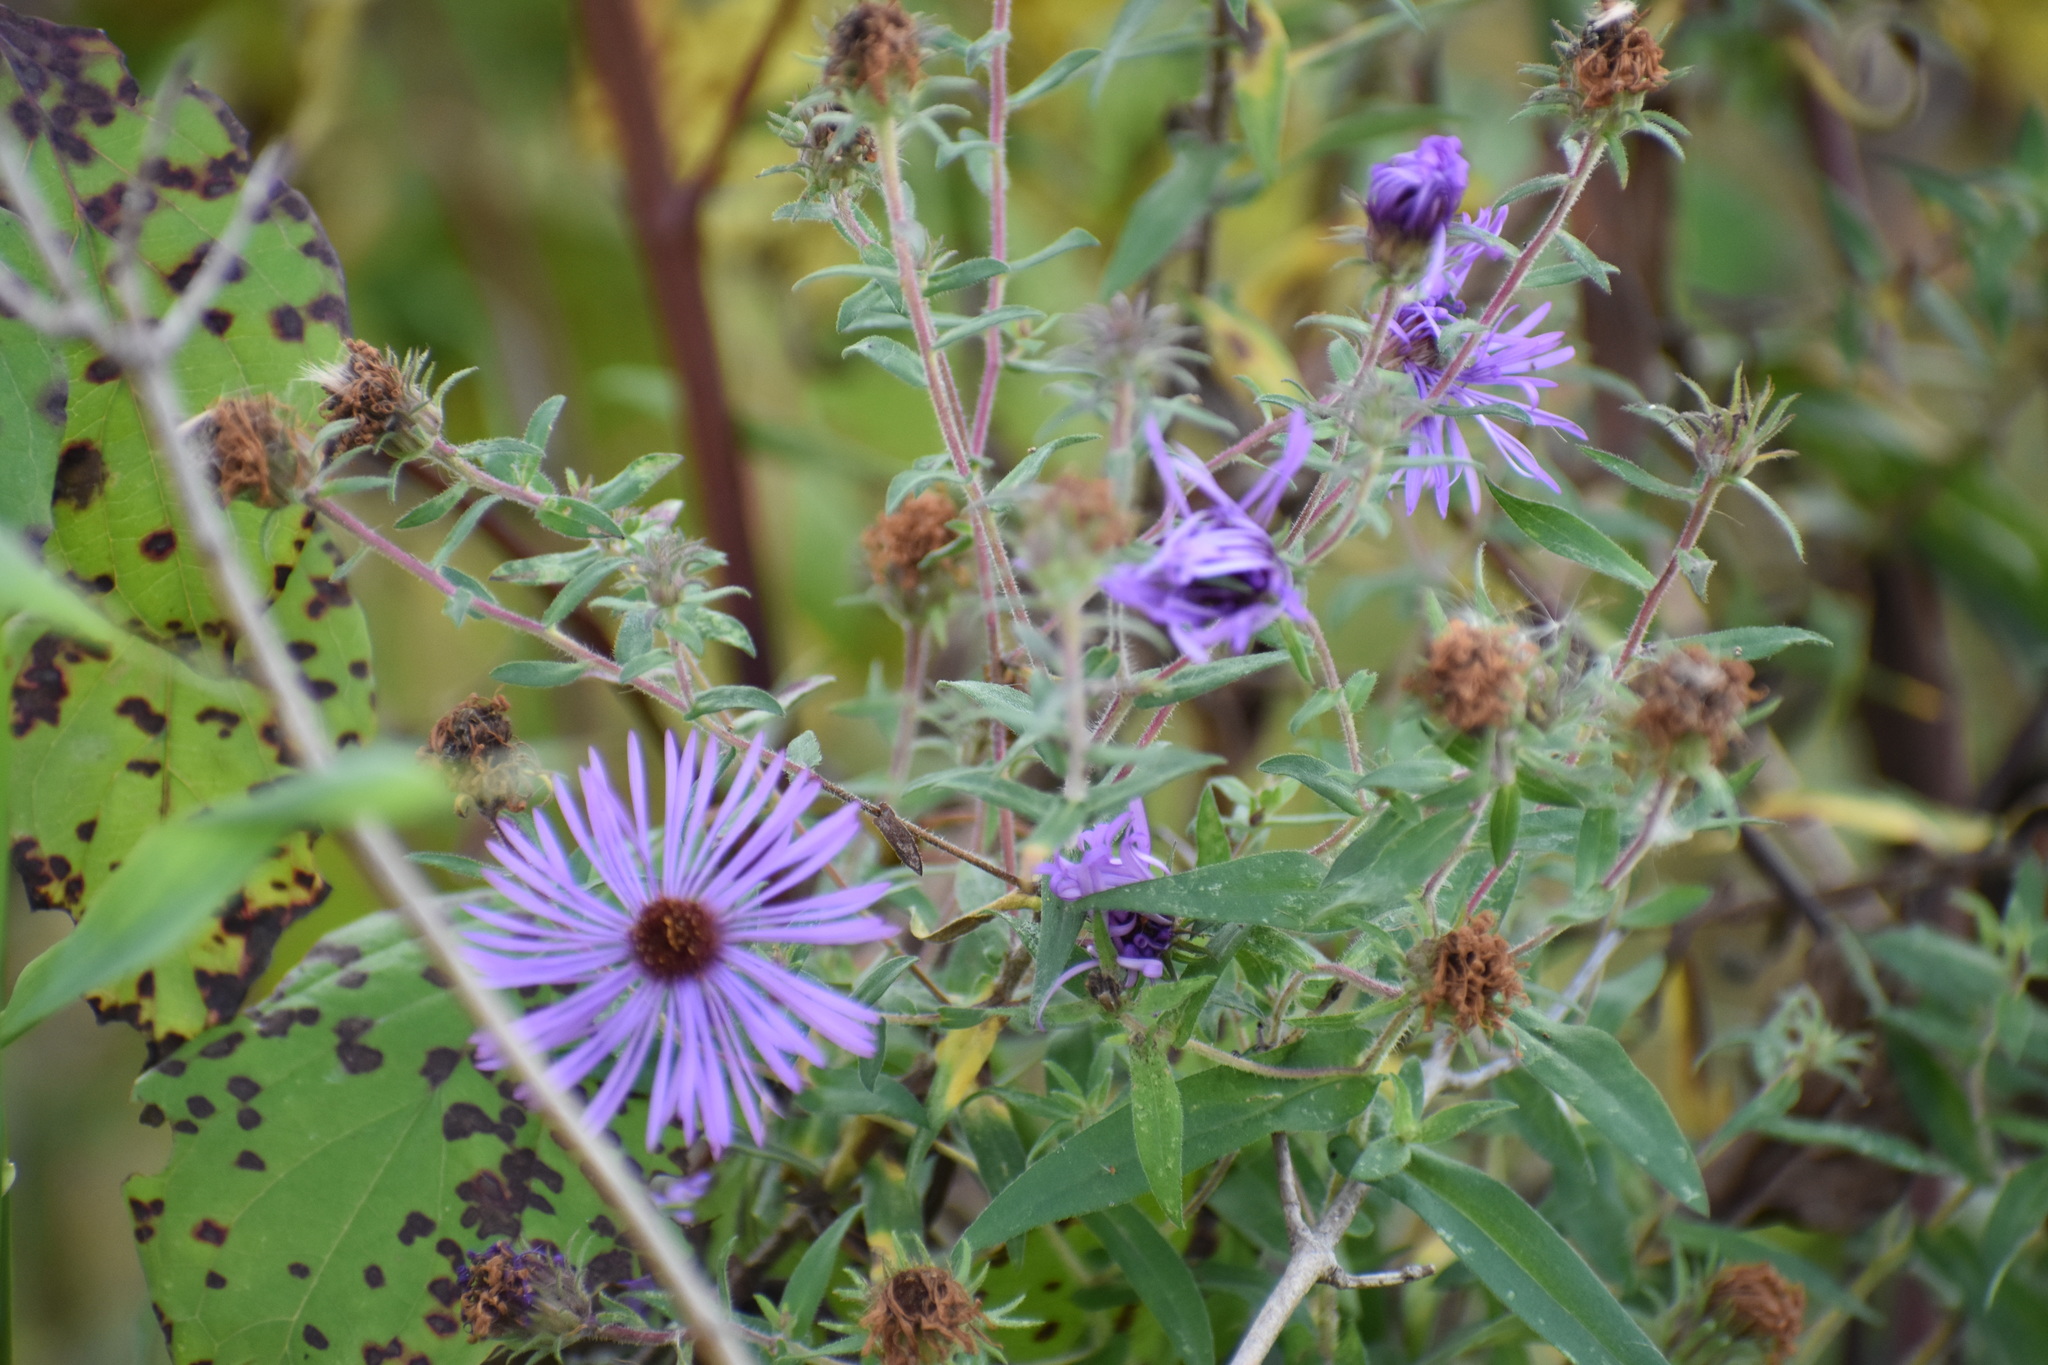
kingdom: Plantae
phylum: Tracheophyta
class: Magnoliopsida
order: Asterales
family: Asteraceae
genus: Symphyotrichum
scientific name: Symphyotrichum novae-angliae
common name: Michaelmas daisy
